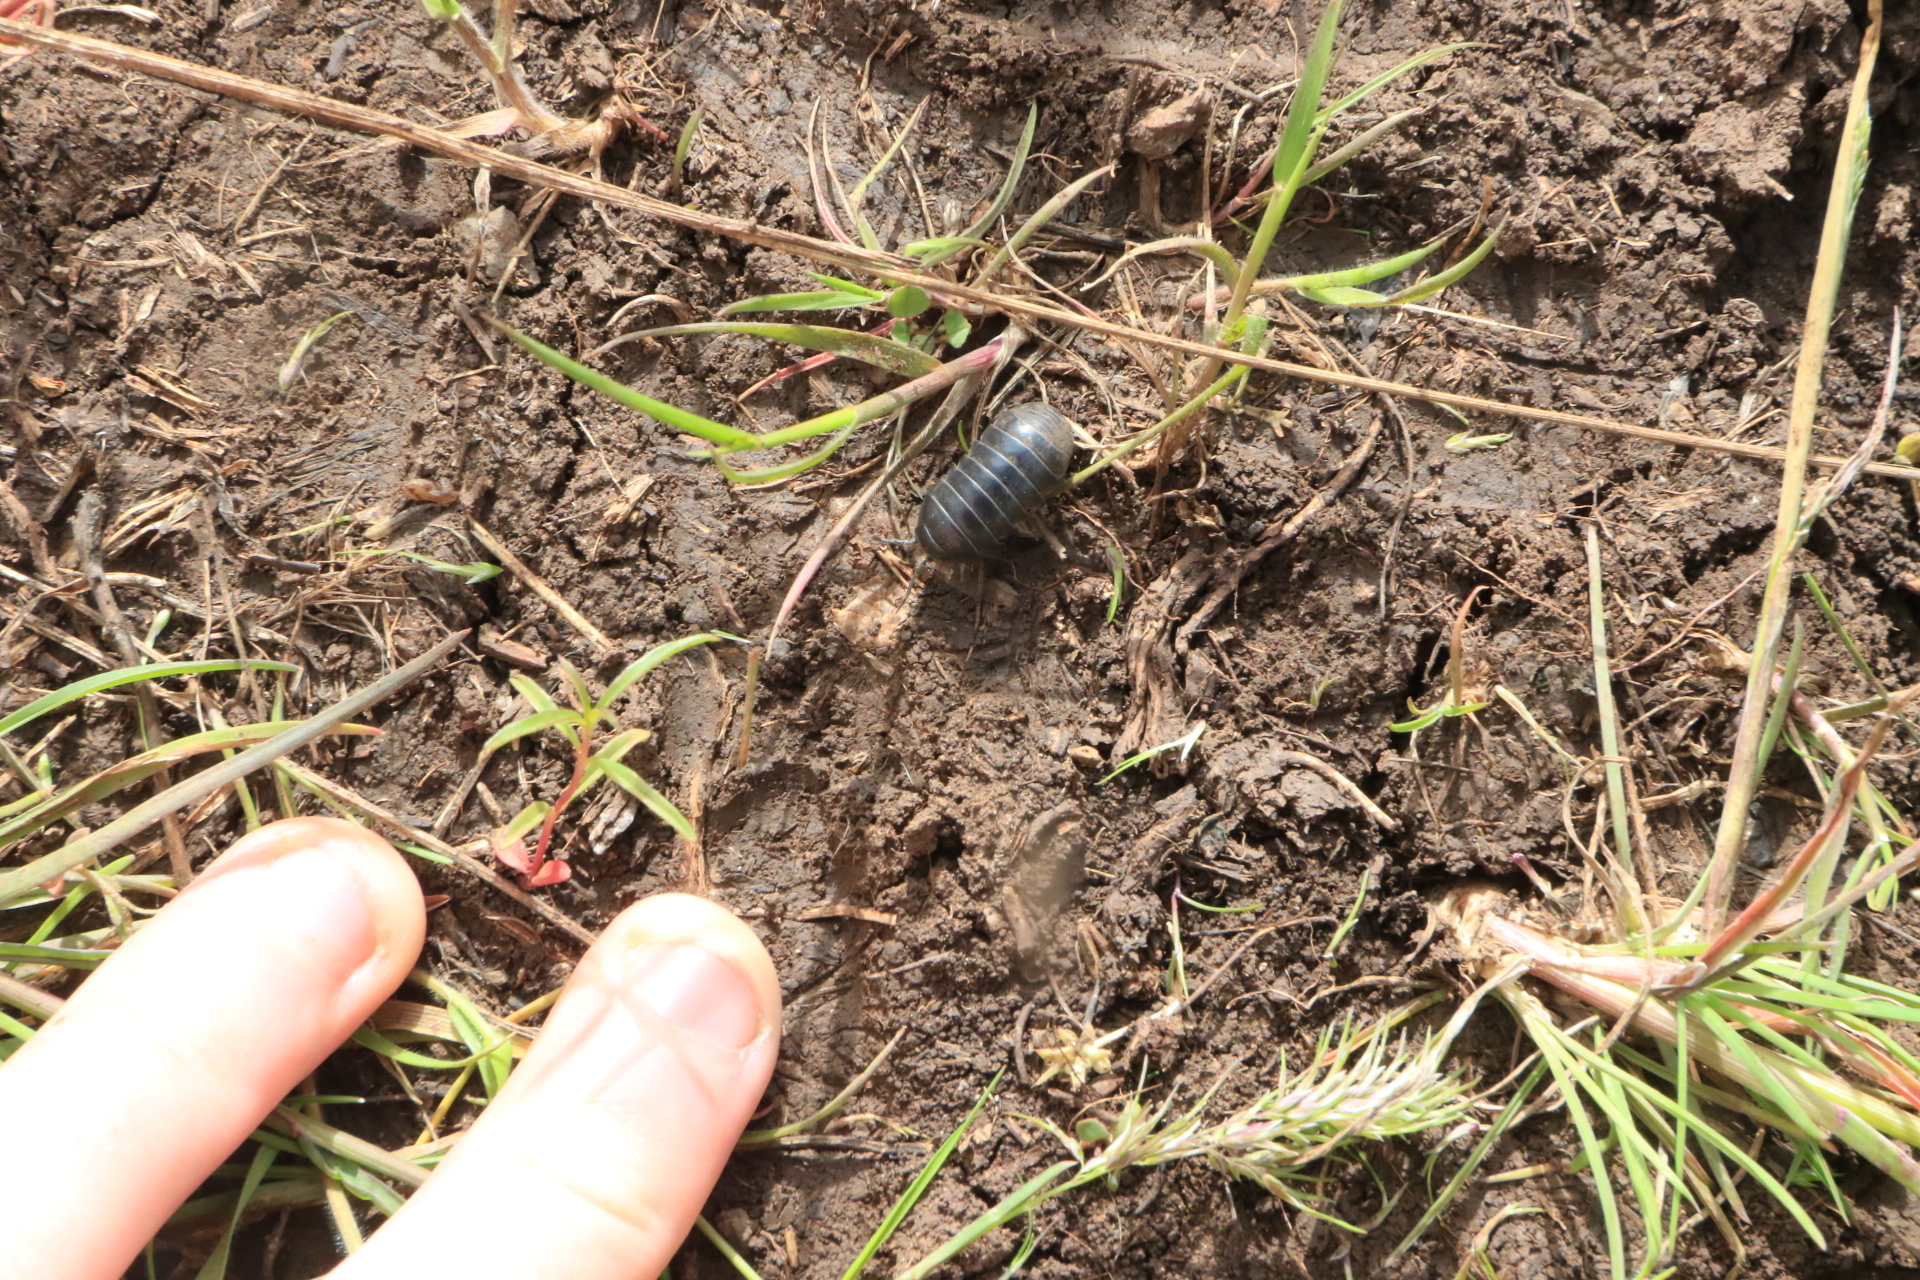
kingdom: Animalia
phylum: Arthropoda
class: Malacostraca
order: Isopoda
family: Armadillidiidae
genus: Armadillidium
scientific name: Armadillidium vulgare
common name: Common pill woodlouse
